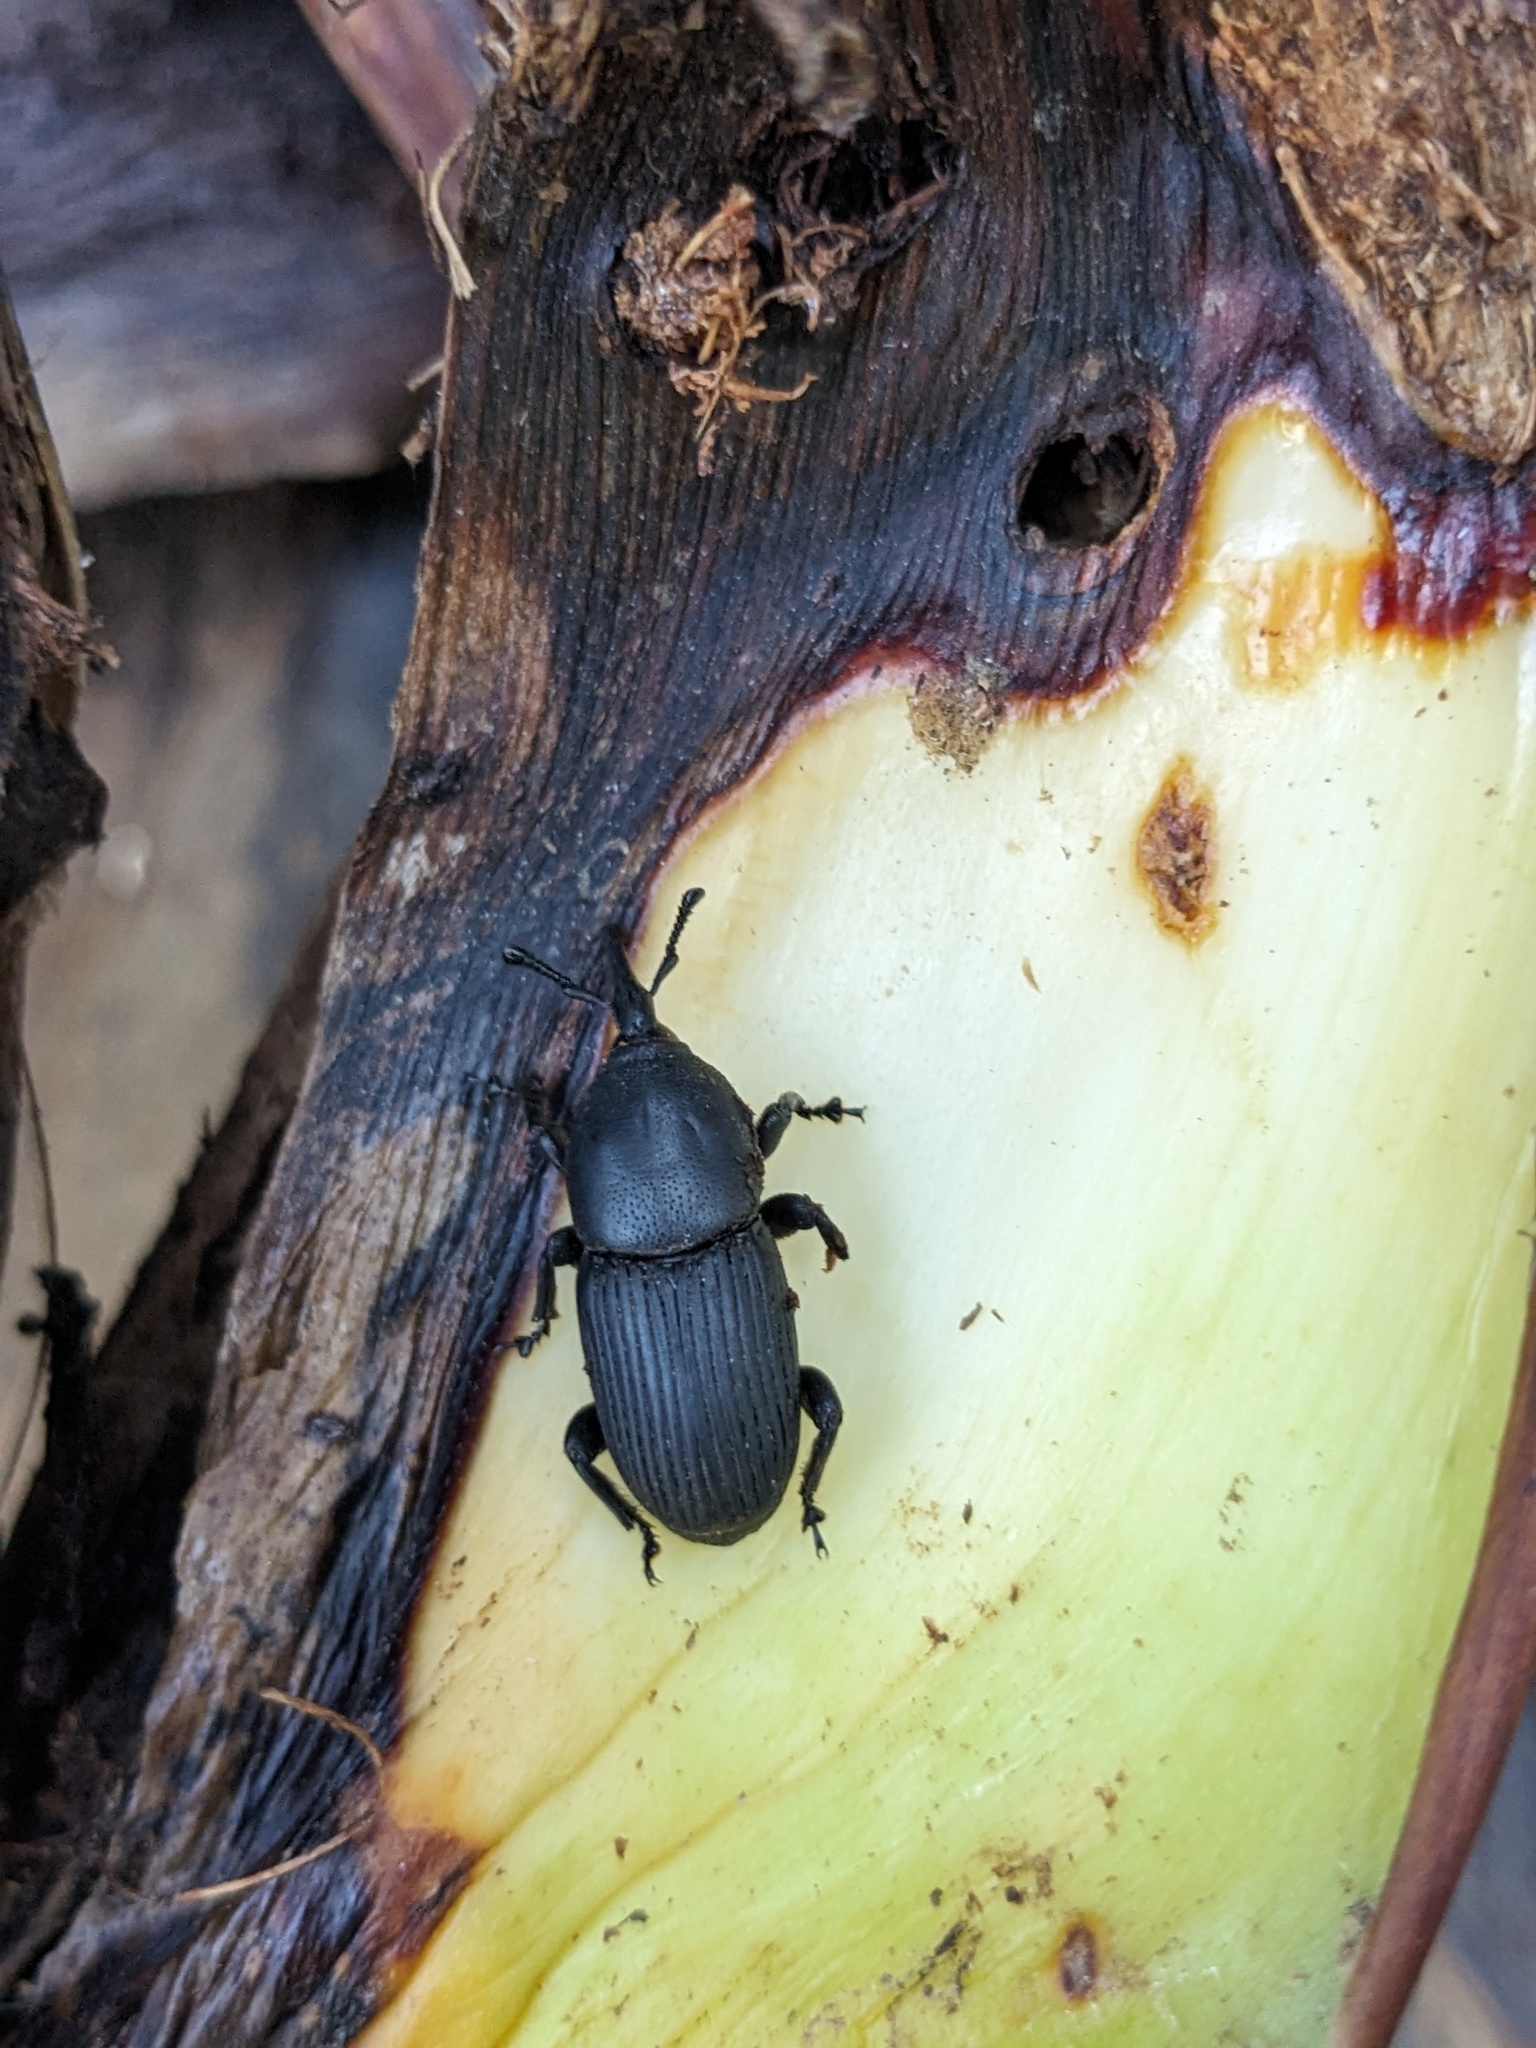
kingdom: Animalia
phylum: Arthropoda
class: Insecta
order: Coleoptera
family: Dryophthoridae
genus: Scyphophorus
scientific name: Scyphophorus acupunctatus
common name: Weevil
